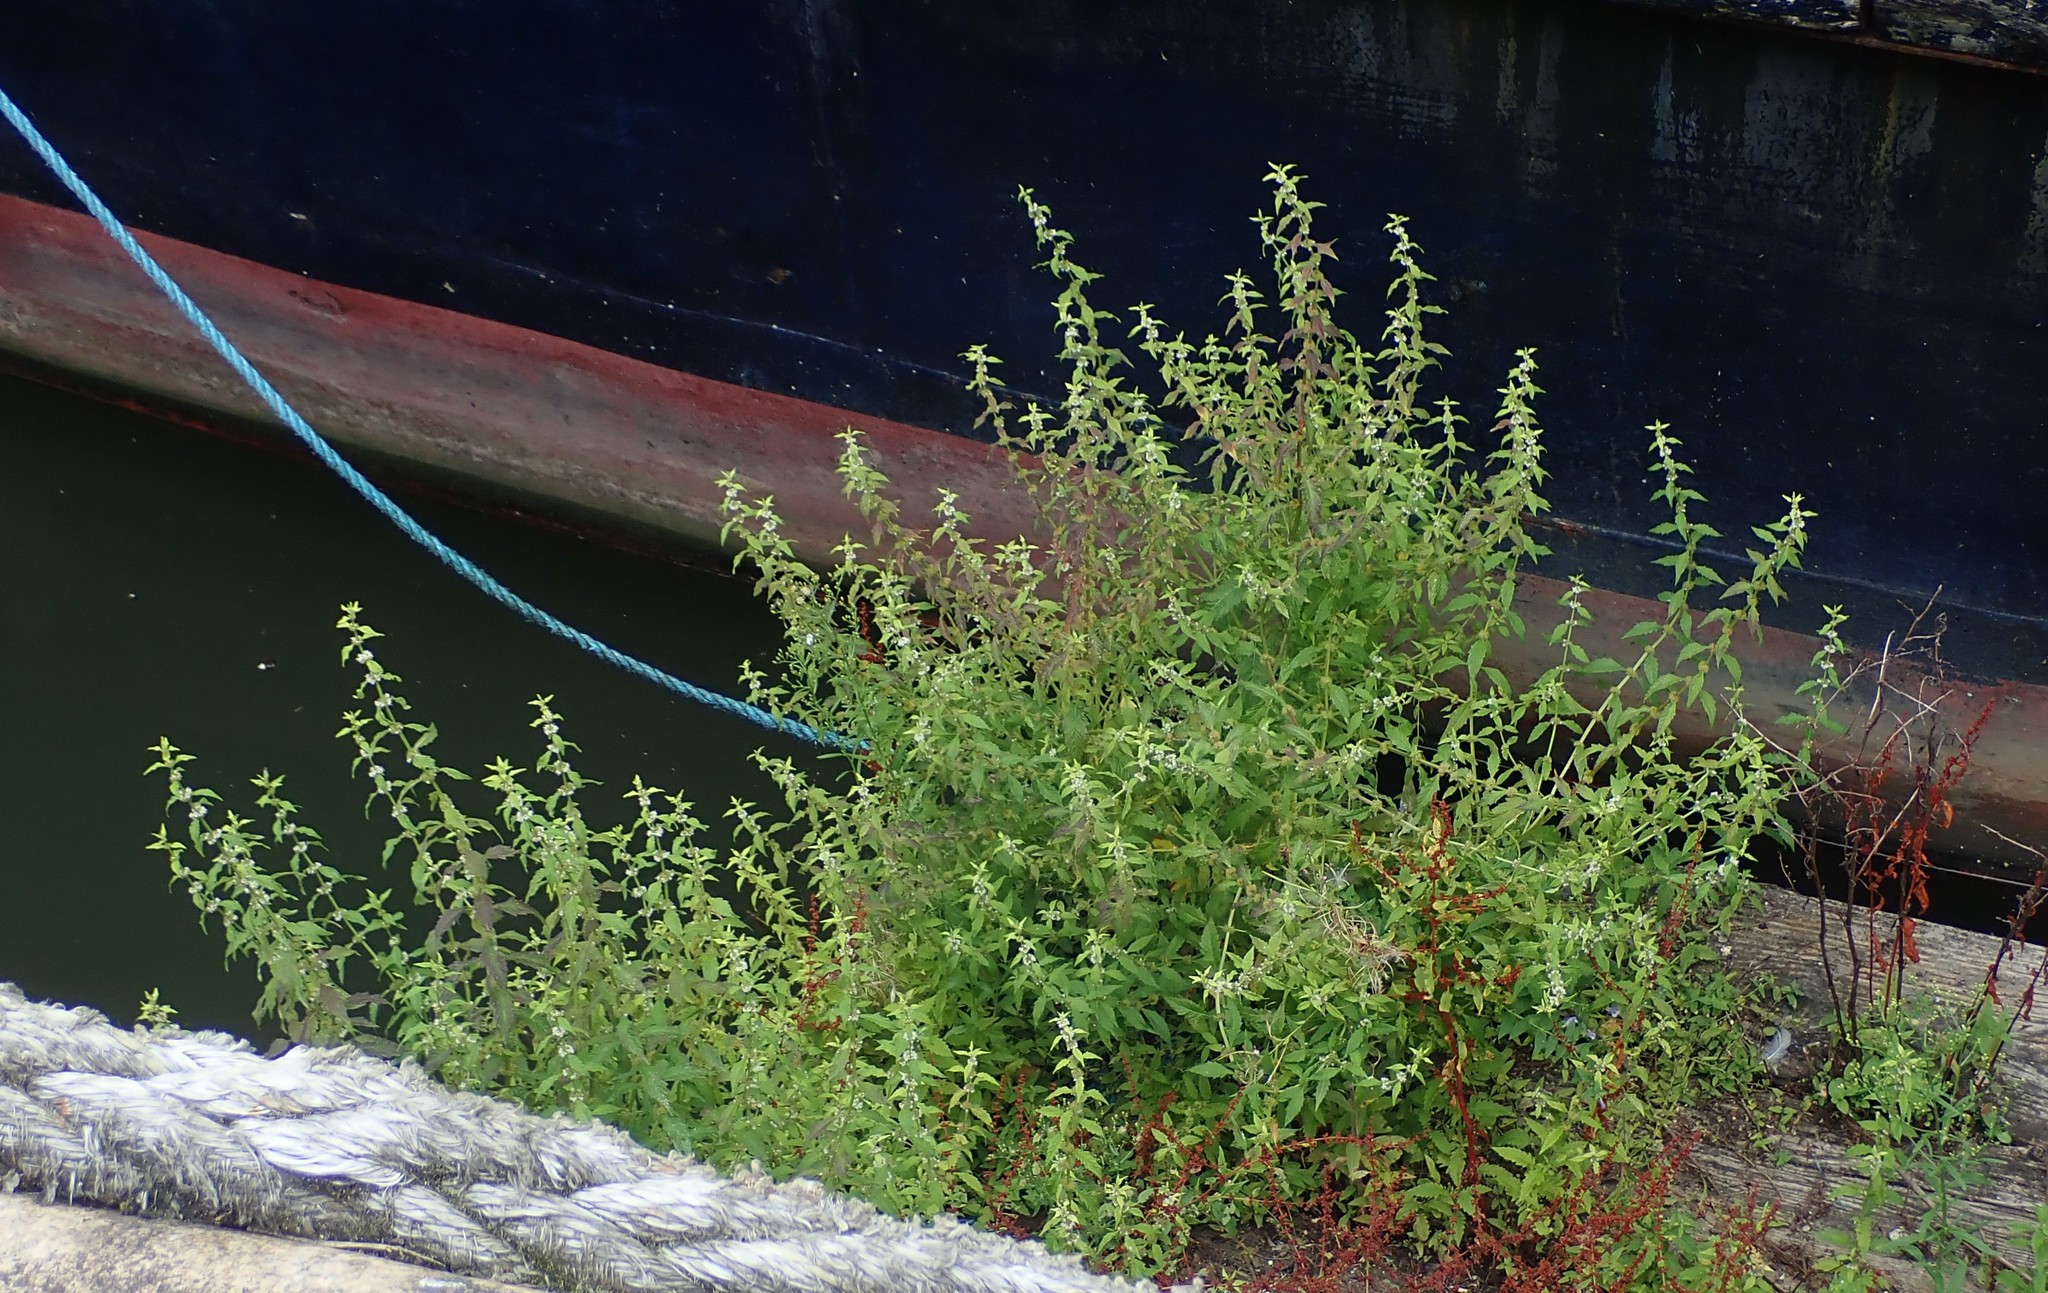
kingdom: Plantae
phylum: Tracheophyta
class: Magnoliopsida
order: Lamiales
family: Lamiaceae
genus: Lycopus
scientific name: Lycopus europaeus
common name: European bugleweed
